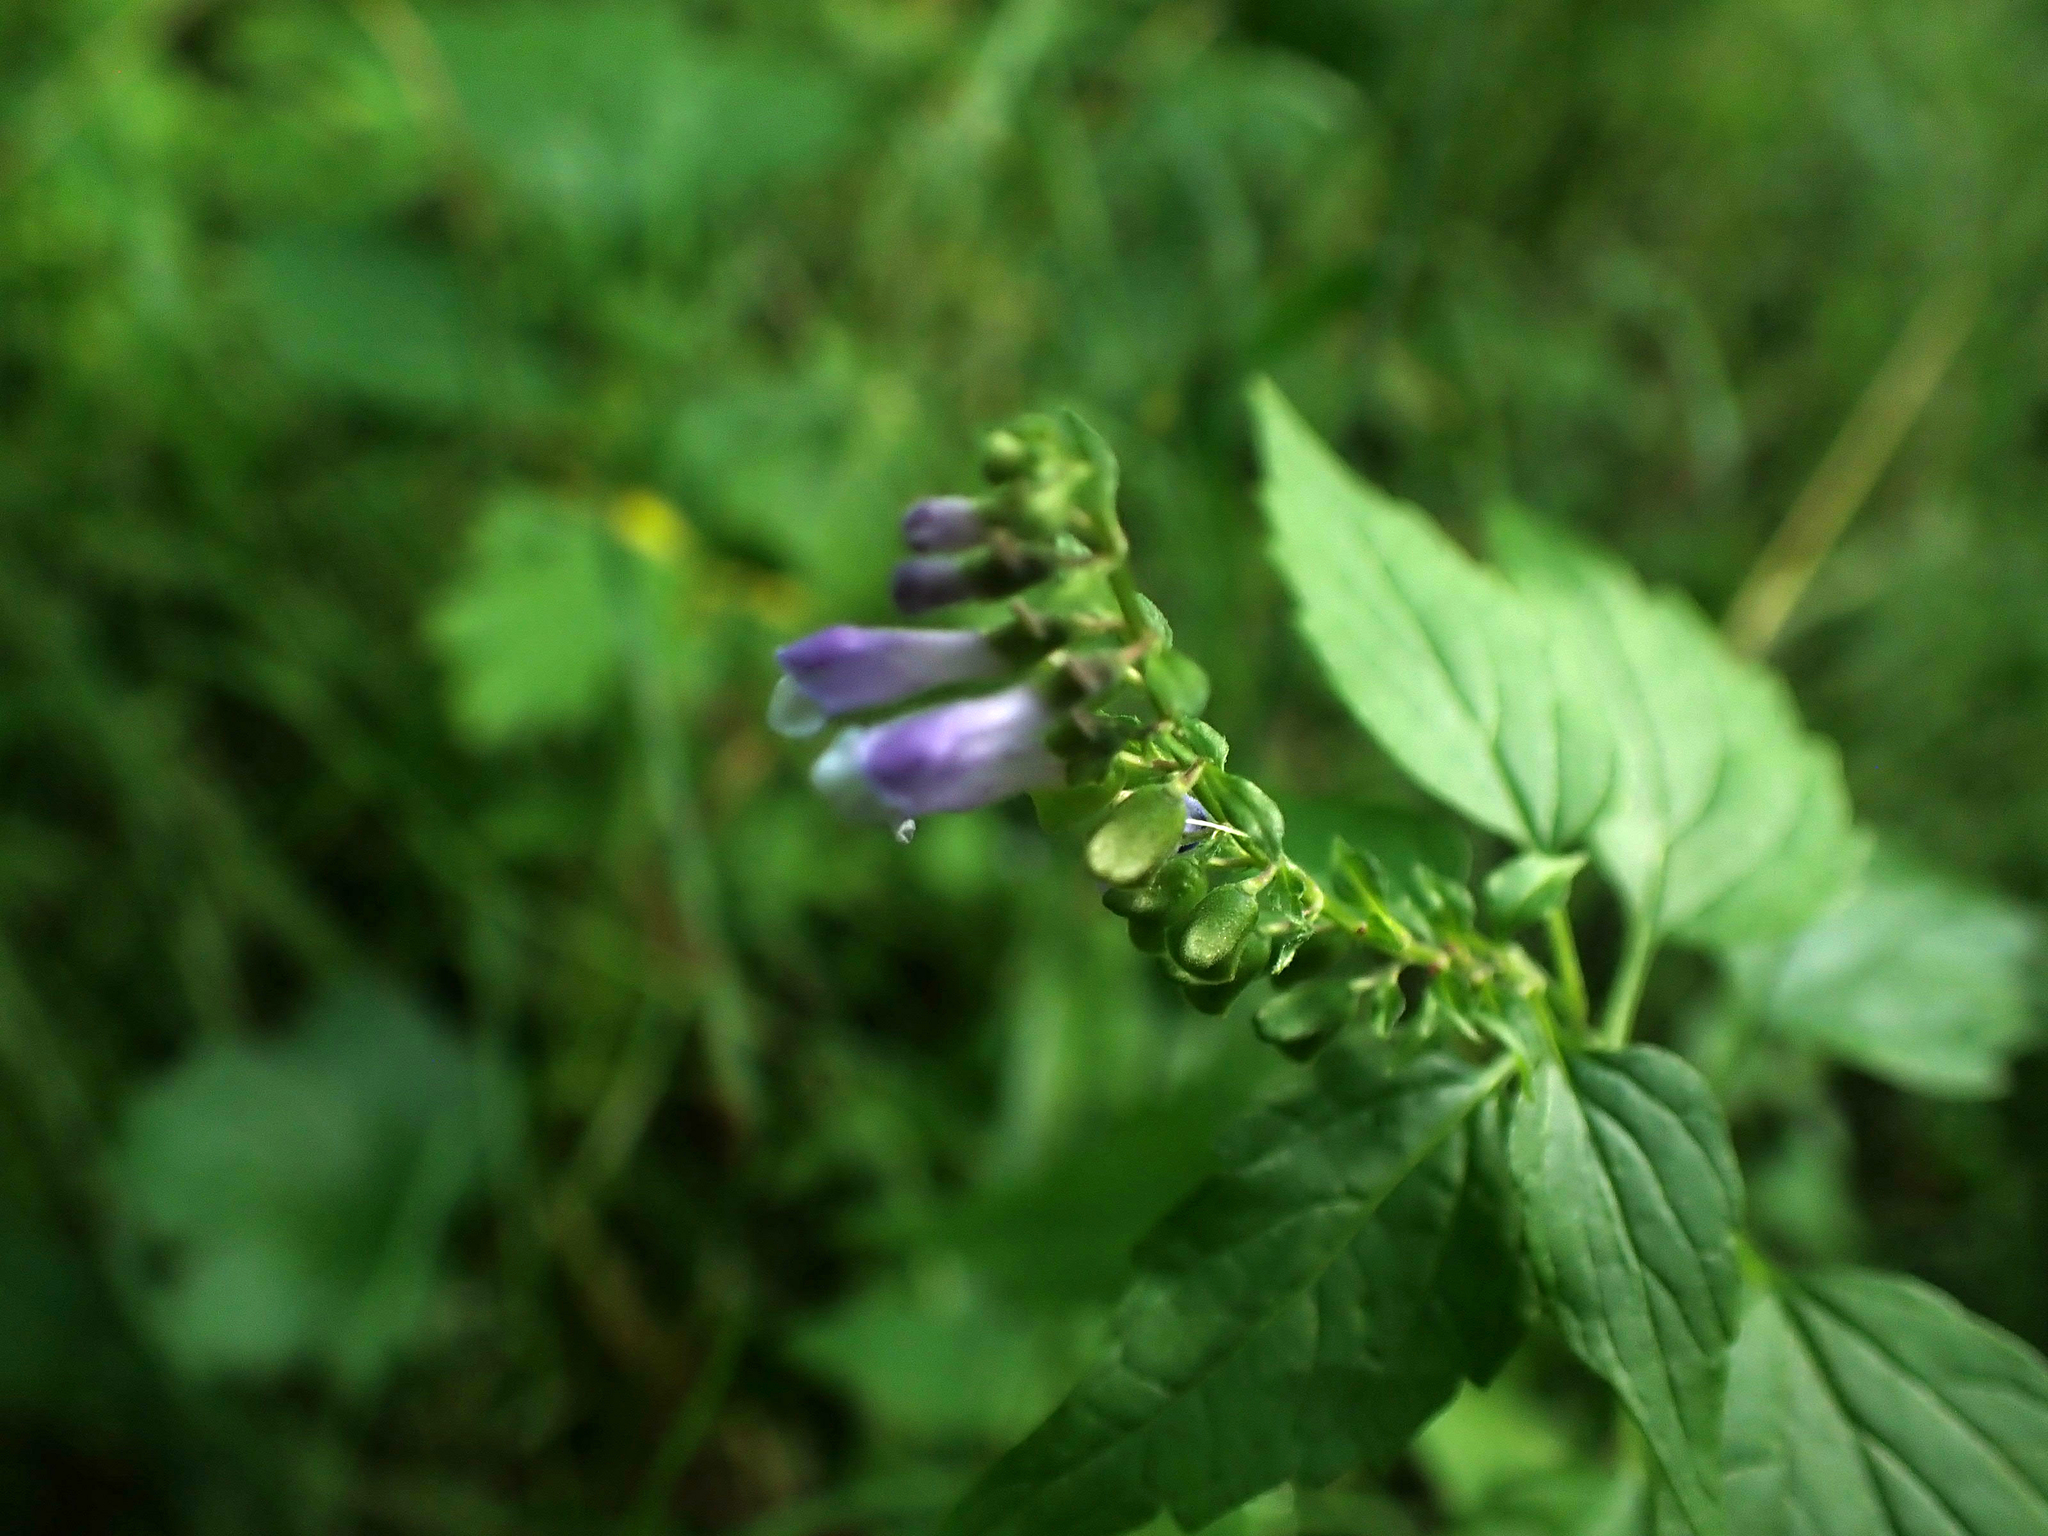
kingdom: Plantae
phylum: Tracheophyta
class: Magnoliopsida
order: Lamiales
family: Lamiaceae
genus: Scutellaria
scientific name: Scutellaria lateriflora
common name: Blue skullcap
